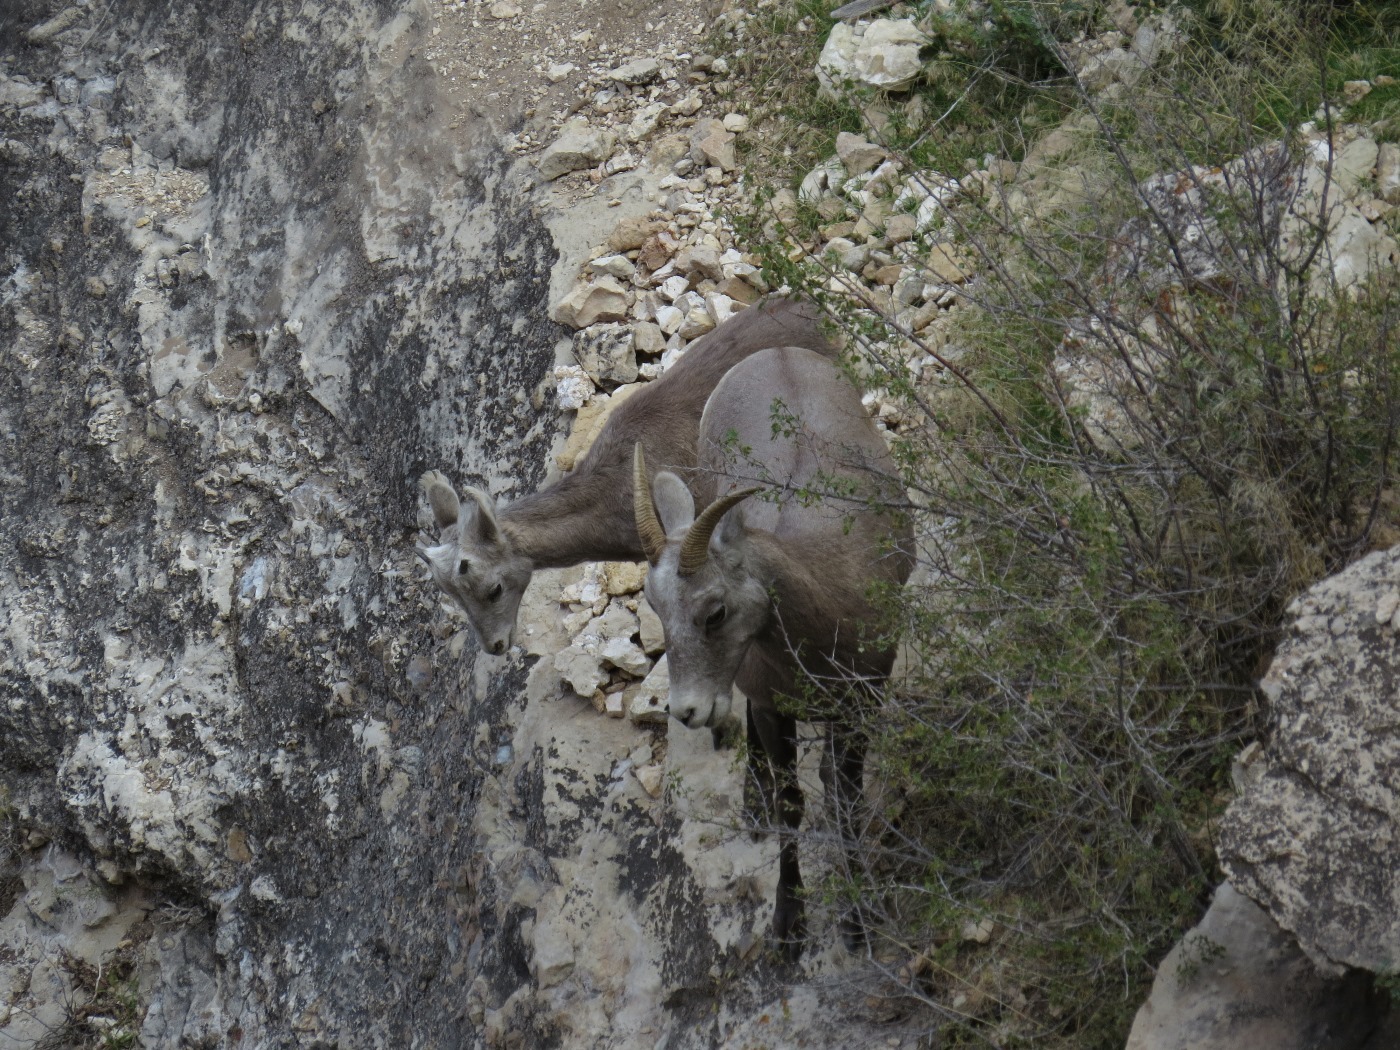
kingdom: Animalia
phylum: Chordata
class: Mammalia
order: Artiodactyla
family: Bovidae
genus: Ovis
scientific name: Ovis canadensis
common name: Bighorn sheep
